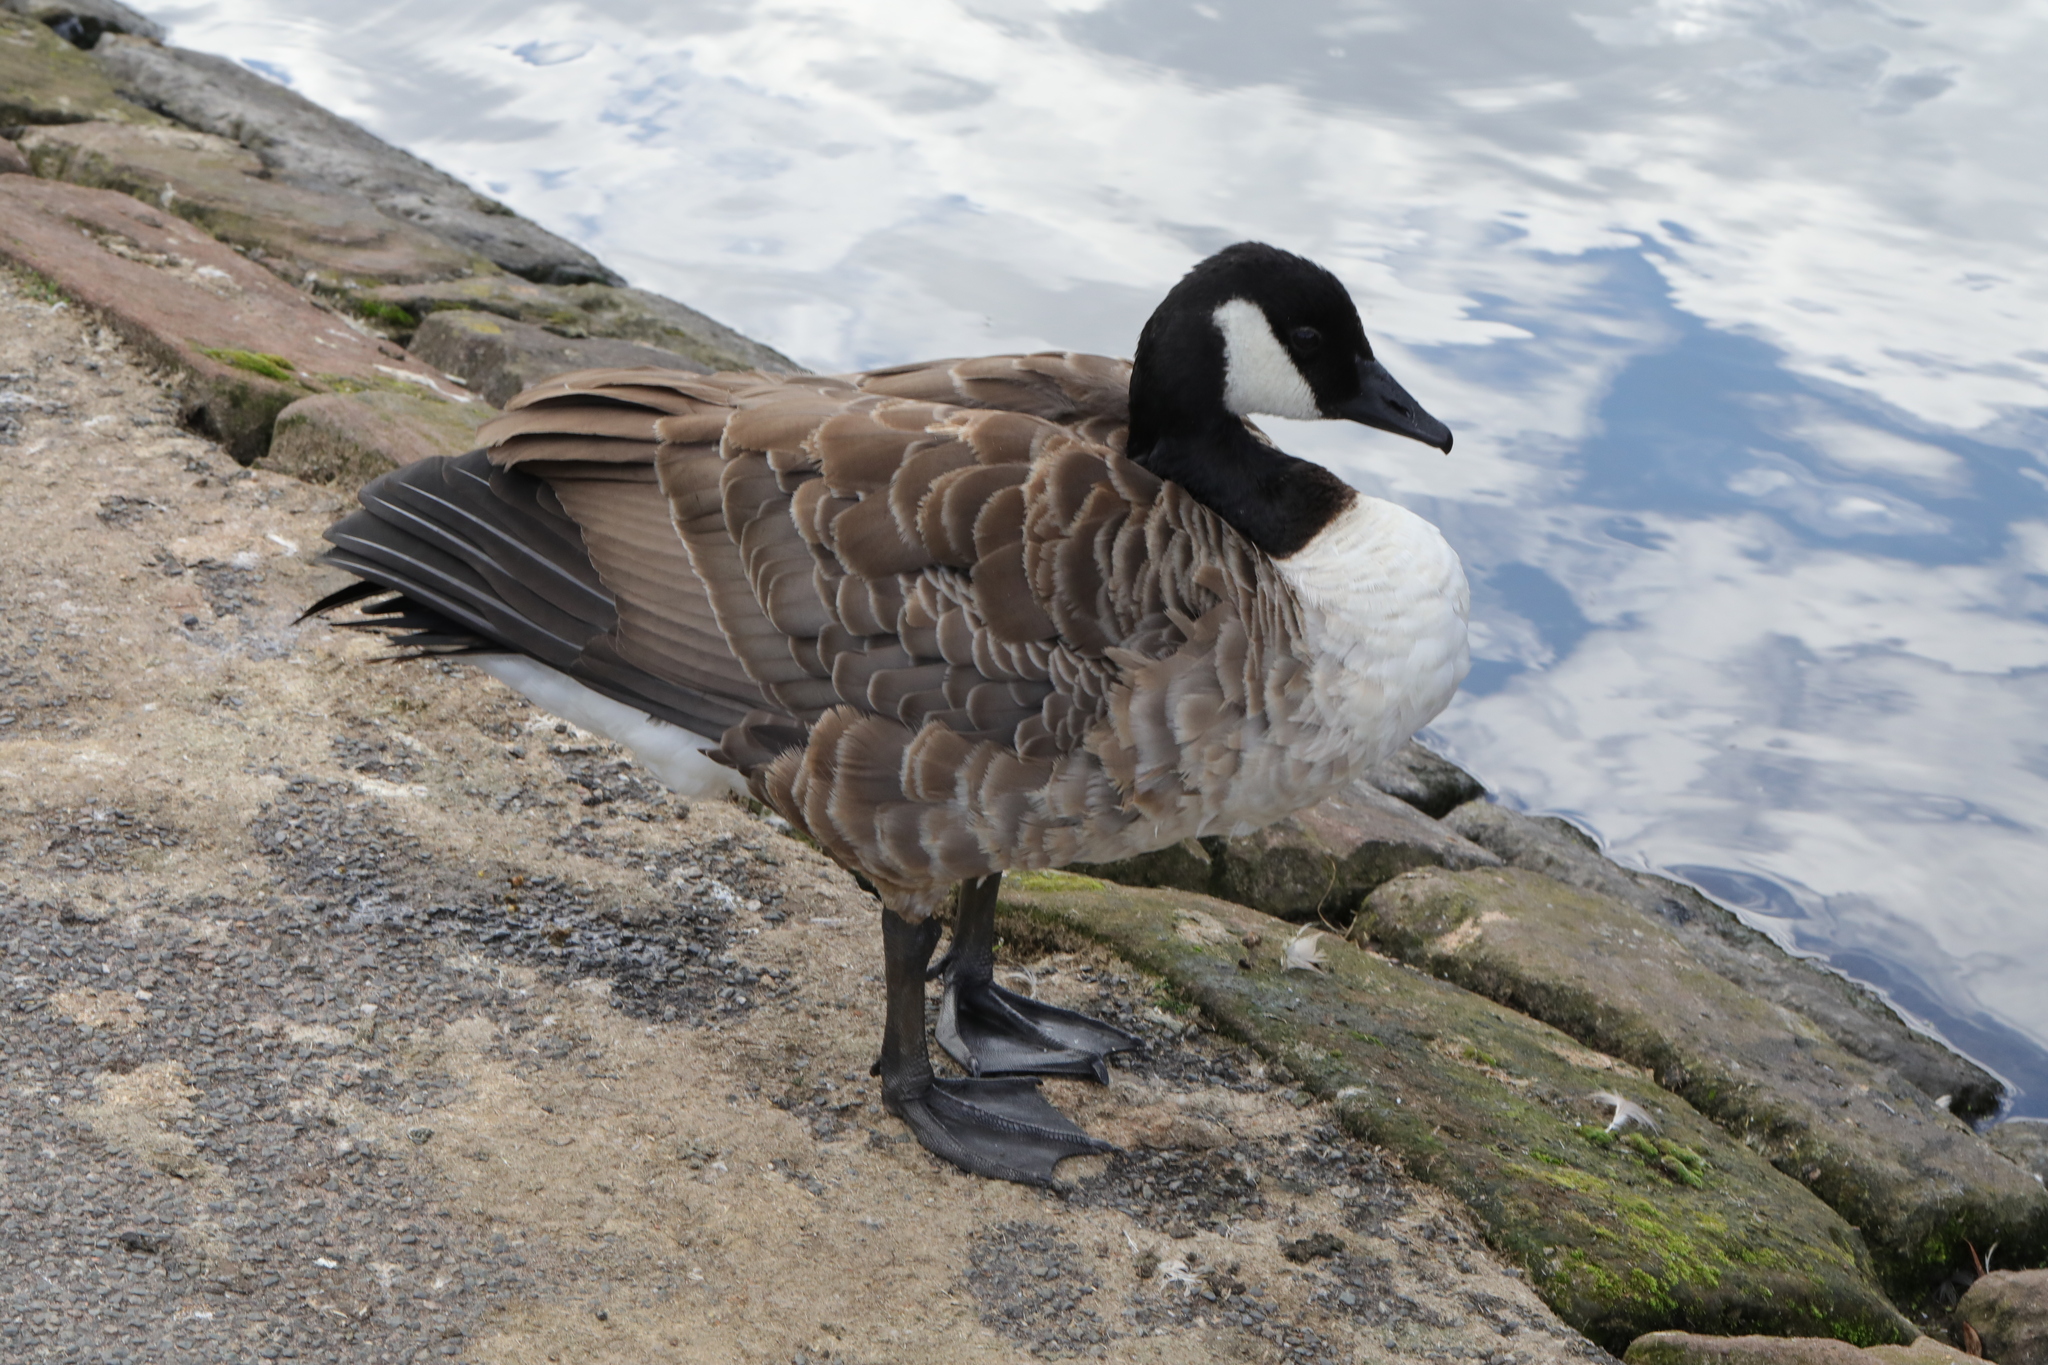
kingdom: Animalia
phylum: Chordata
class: Aves
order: Anseriformes
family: Anatidae
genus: Branta
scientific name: Branta canadensis
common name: Canada goose
